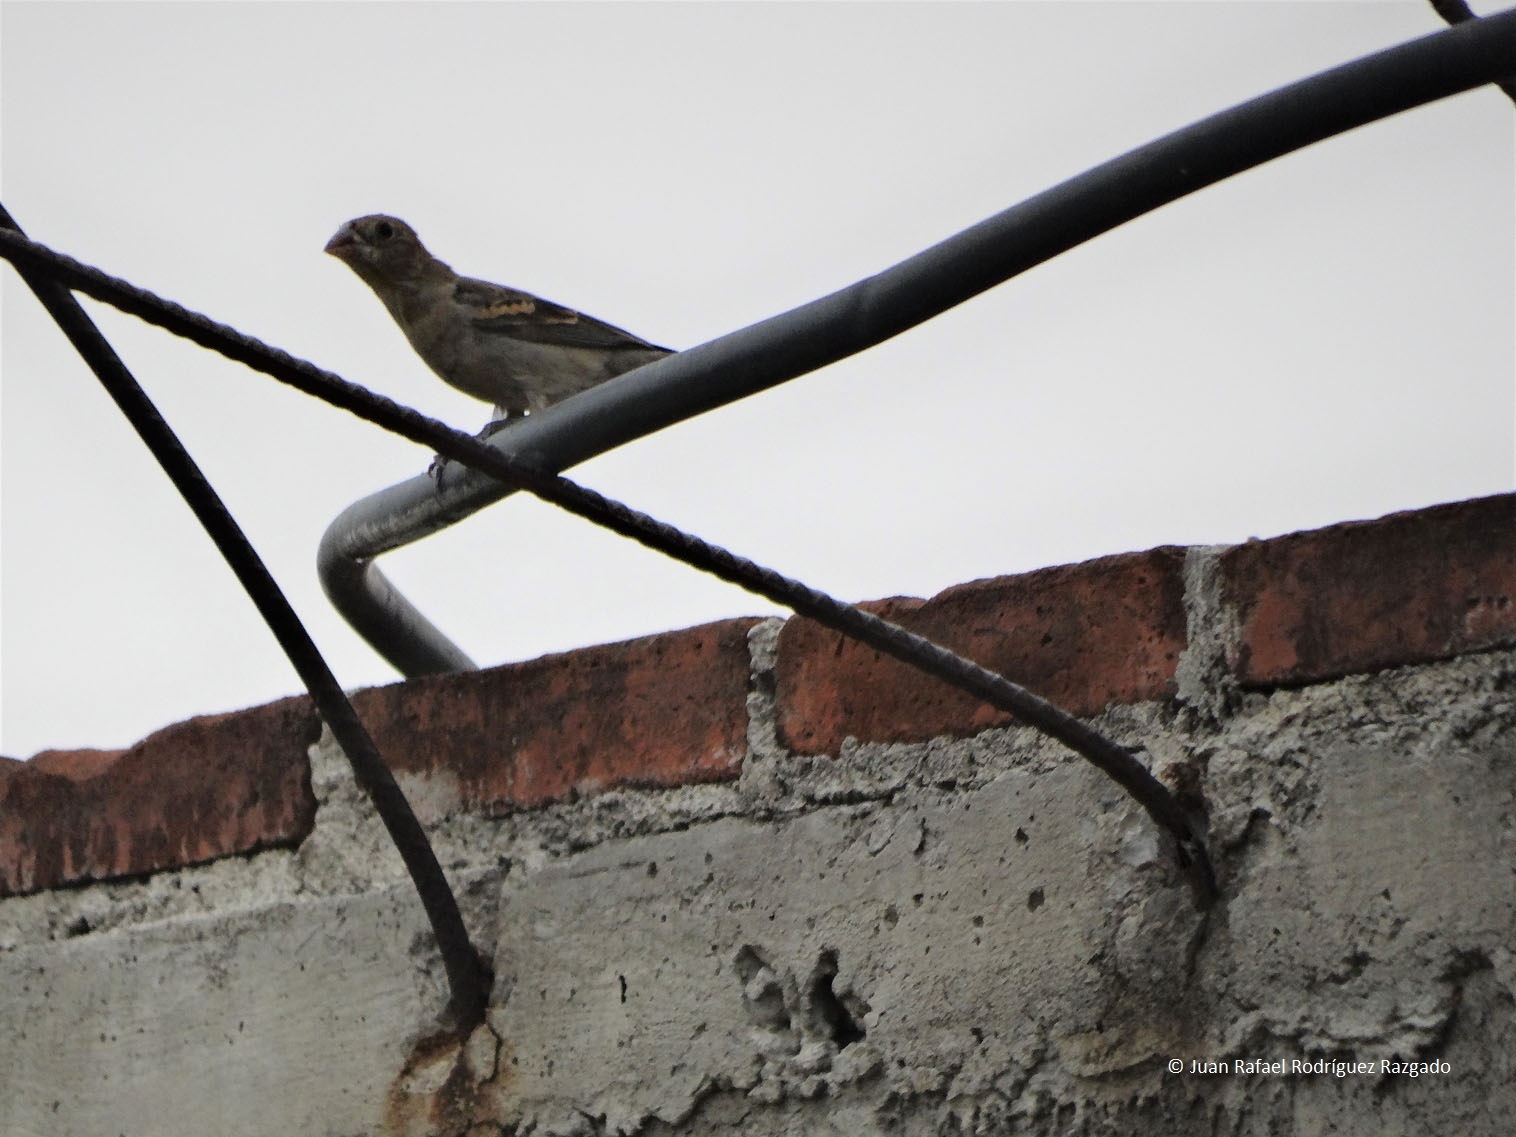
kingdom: Animalia
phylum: Chordata
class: Aves
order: Passeriformes
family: Cardinalidae
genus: Passerina
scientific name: Passerina caerulea
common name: Blue grosbeak
